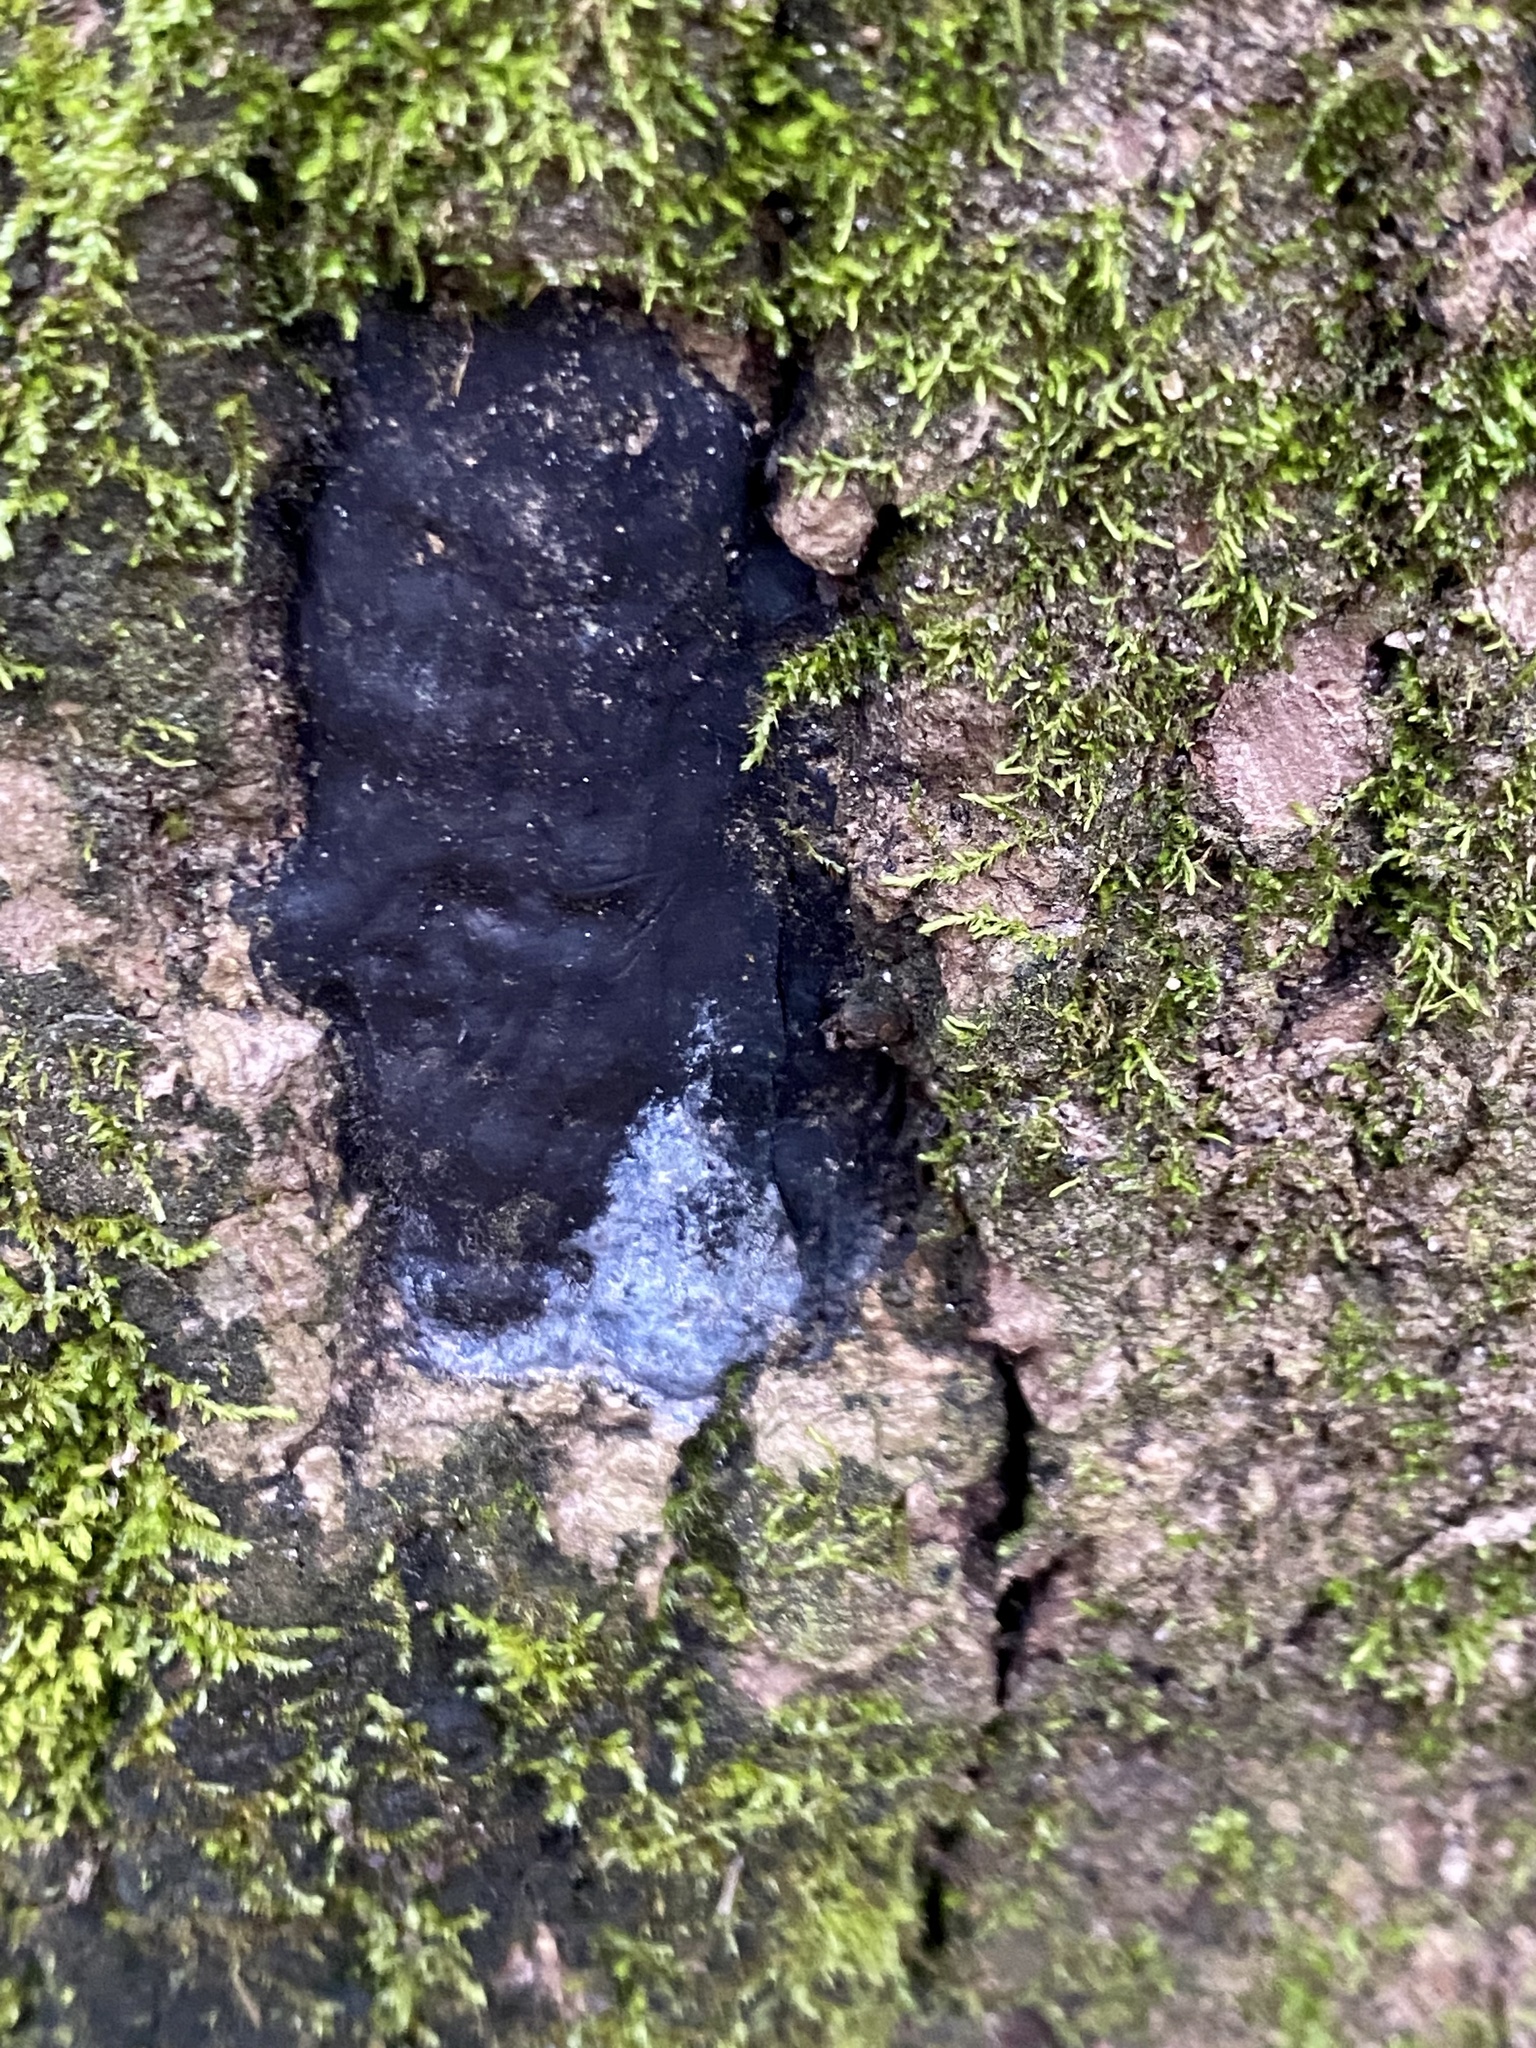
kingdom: Fungi
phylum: Ascomycota
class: Sordariomycetes
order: Xylariales
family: Graphostromataceae
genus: Biscogniauxia
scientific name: Biscogniauxia atropunctata
